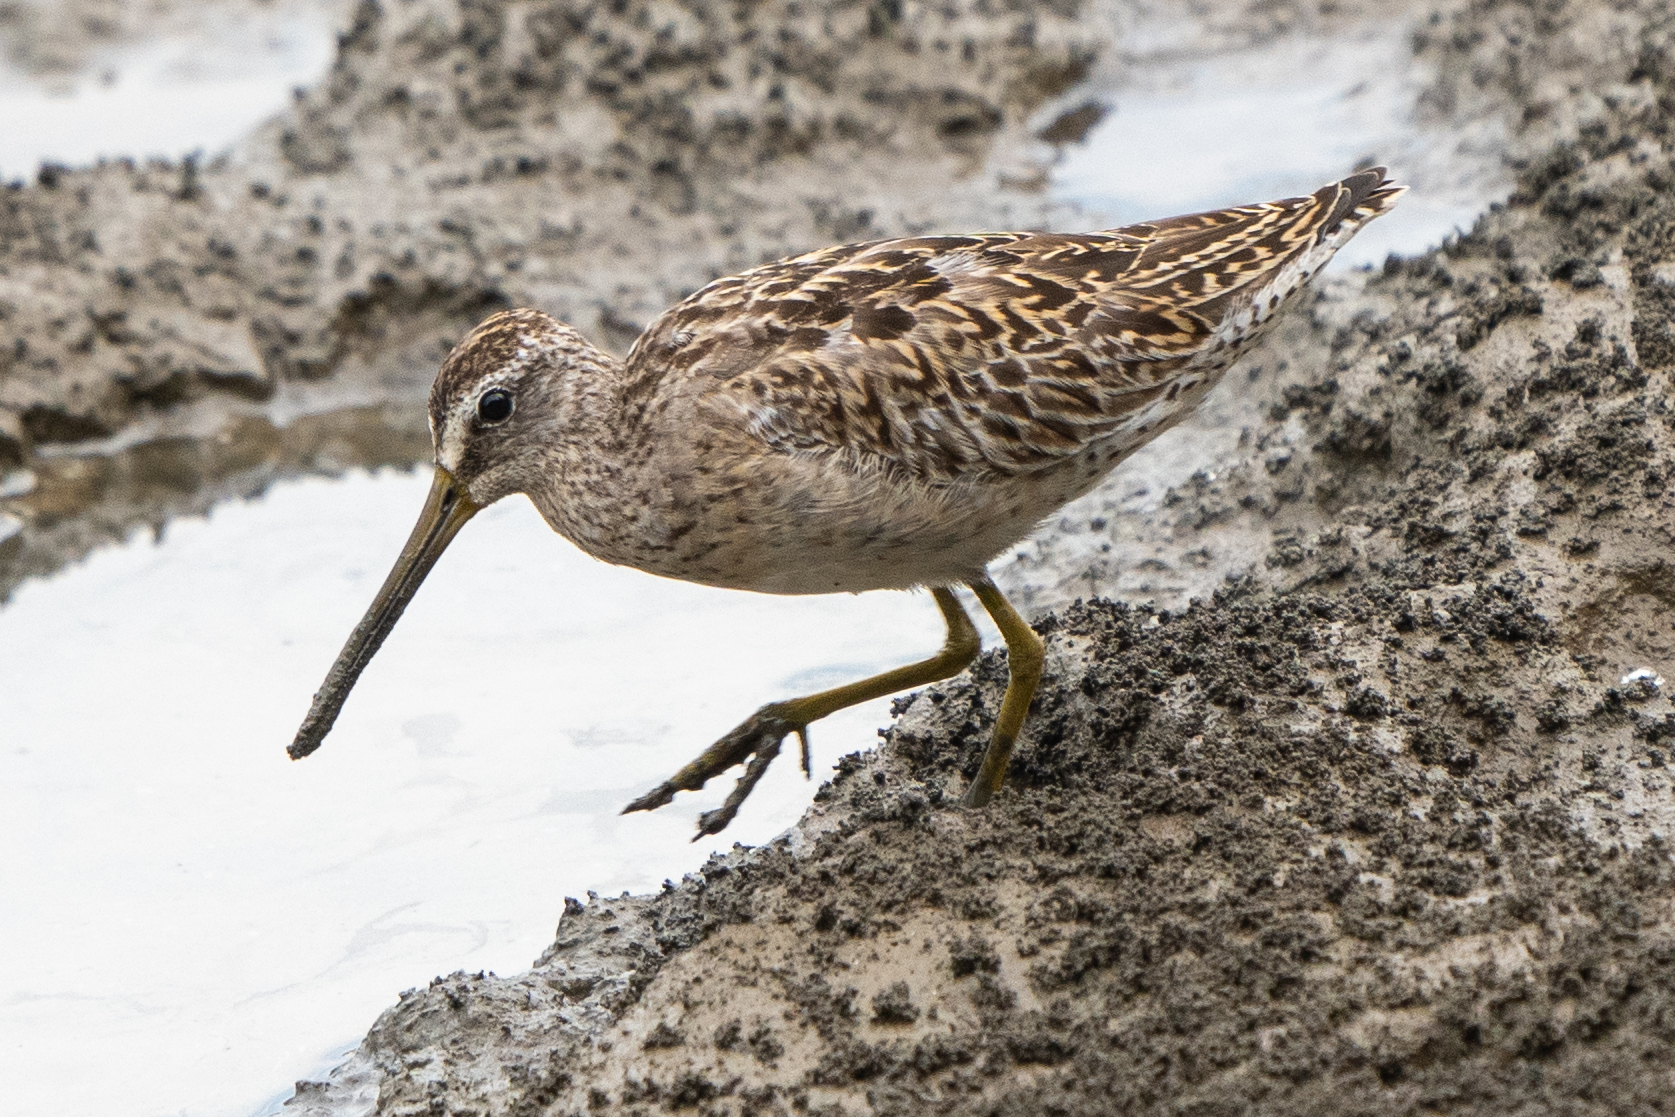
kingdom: Animalia
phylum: Chordata
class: Aves
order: Charadriiformes
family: Scolopacidae
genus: Limnodromus
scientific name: Limnodromus griseus
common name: Short-billed dowitcher
